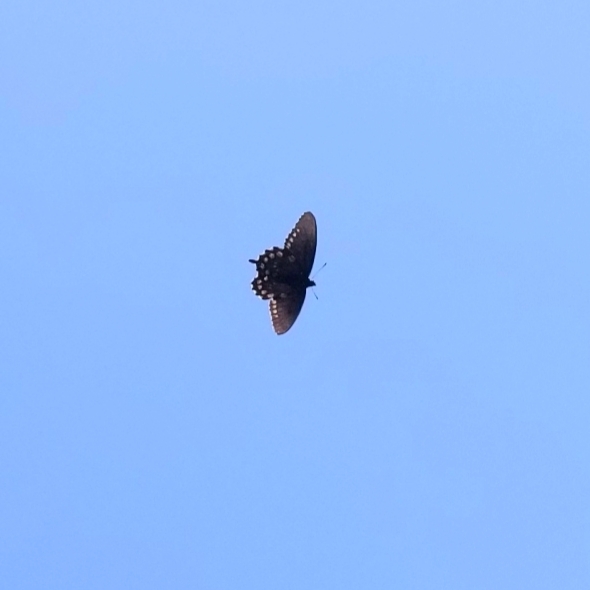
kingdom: Animalia
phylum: Arthropoda
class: Insecta
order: Lepidoptera
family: Papilionidae
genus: Battus
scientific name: Battus philenor
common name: Pipevine swallowtail
